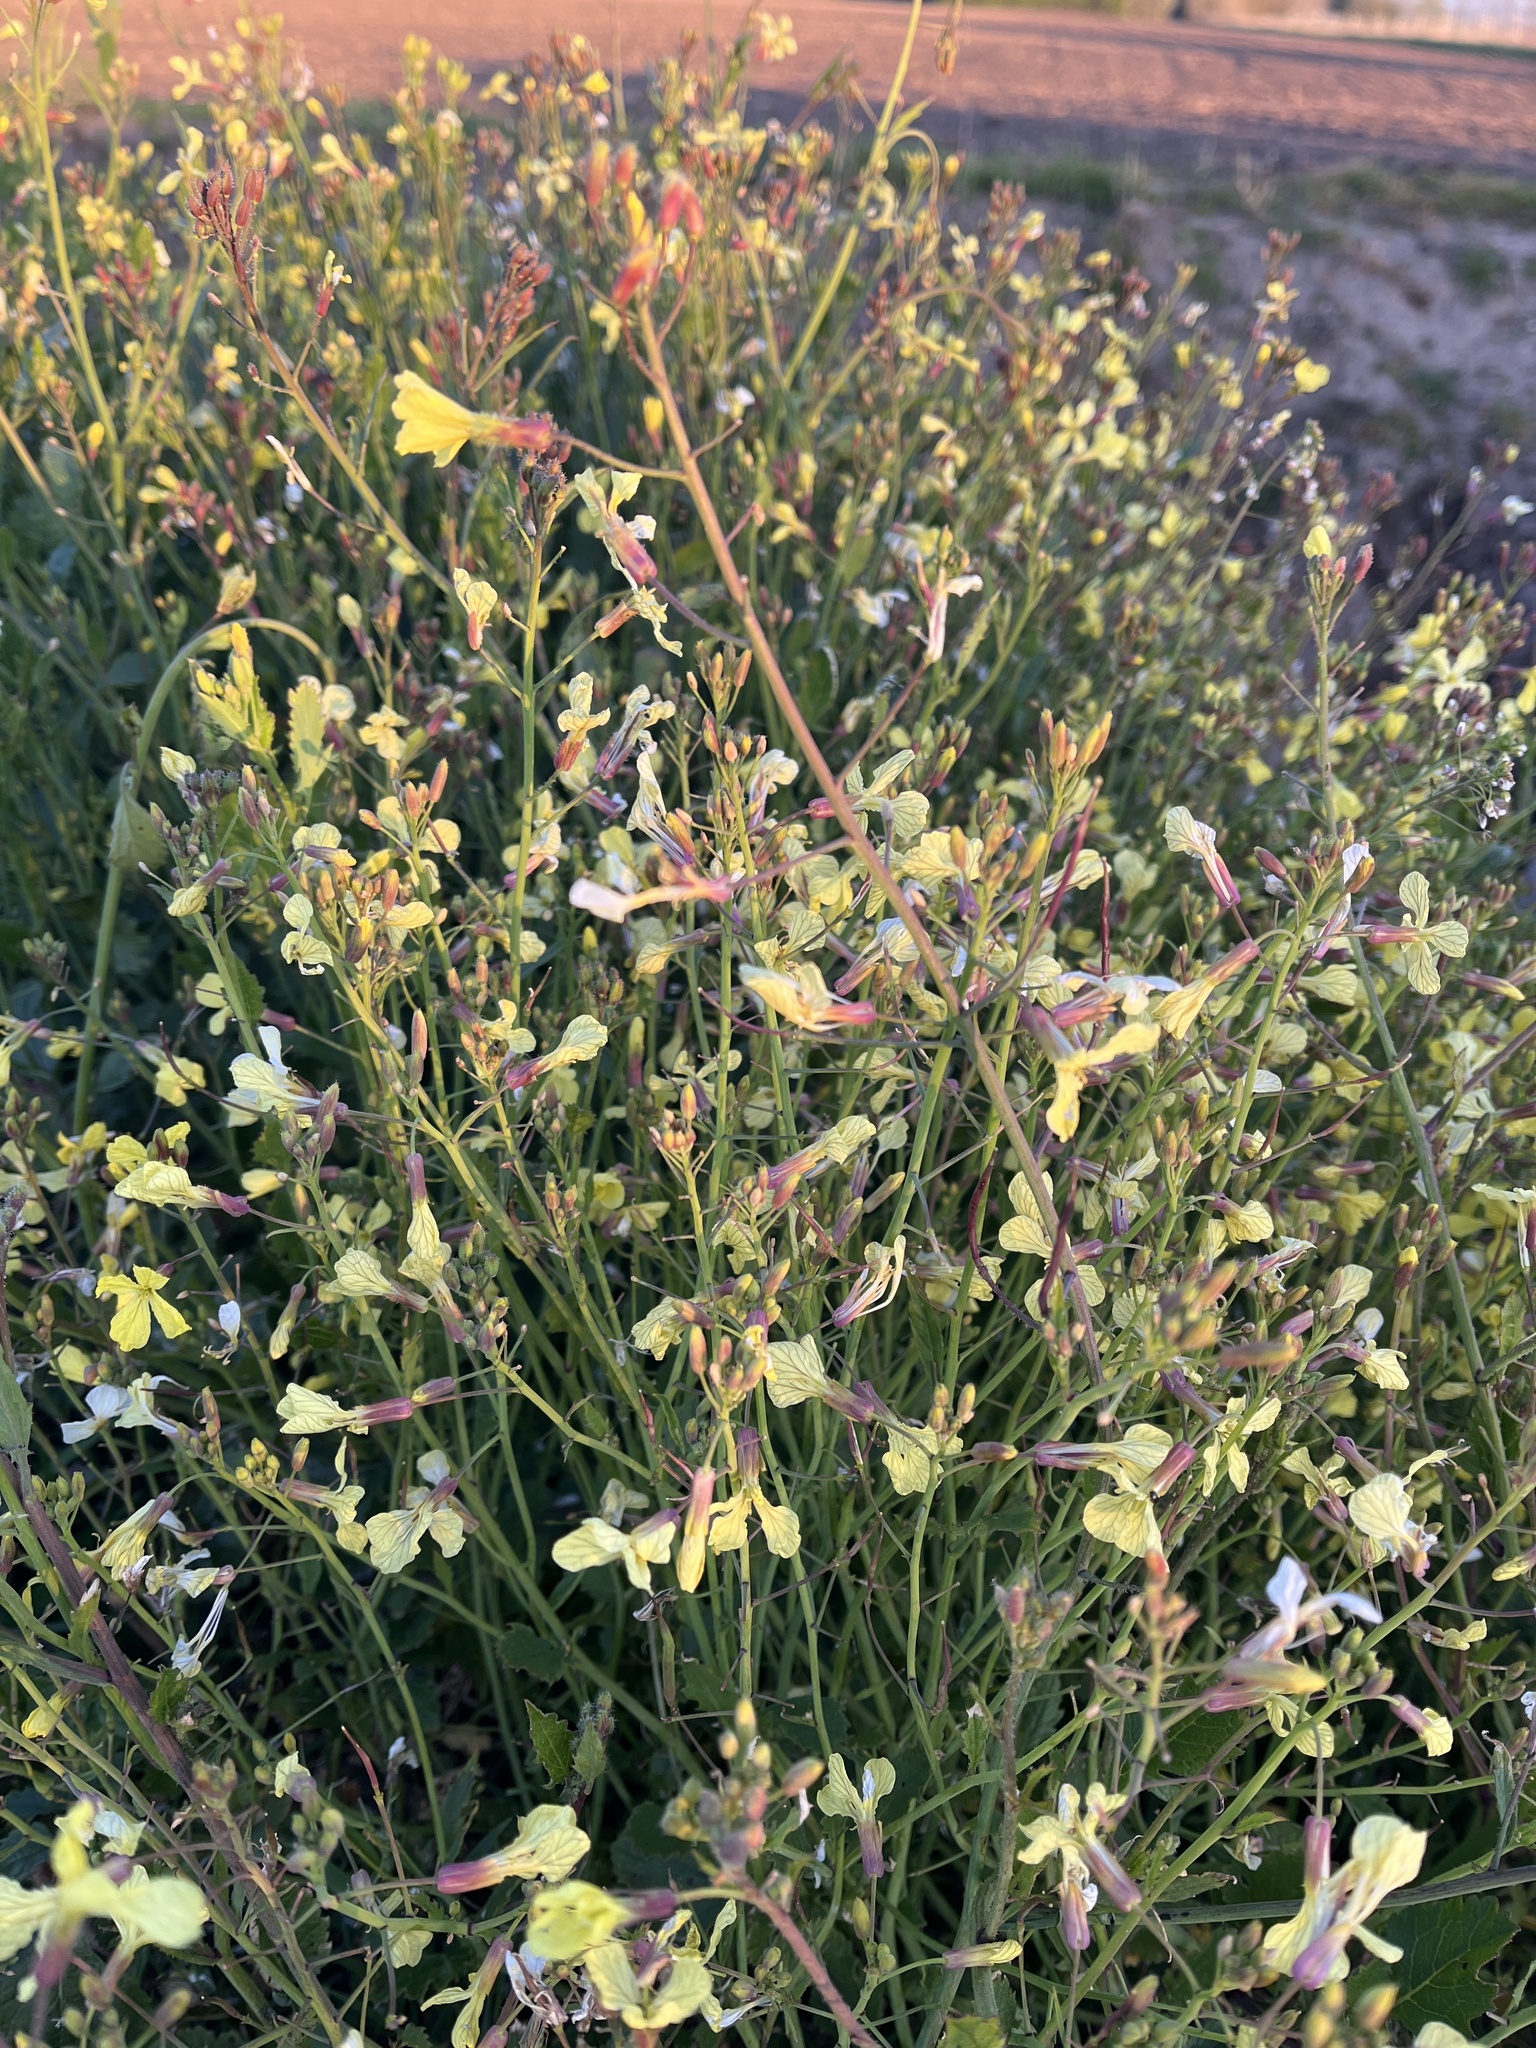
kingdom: Plantae
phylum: Tracheophyta
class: Magnoliopsida
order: Brassicales
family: Brassicaceae
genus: Raphanus
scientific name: Raphanus raphanistrum
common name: Wild radish
